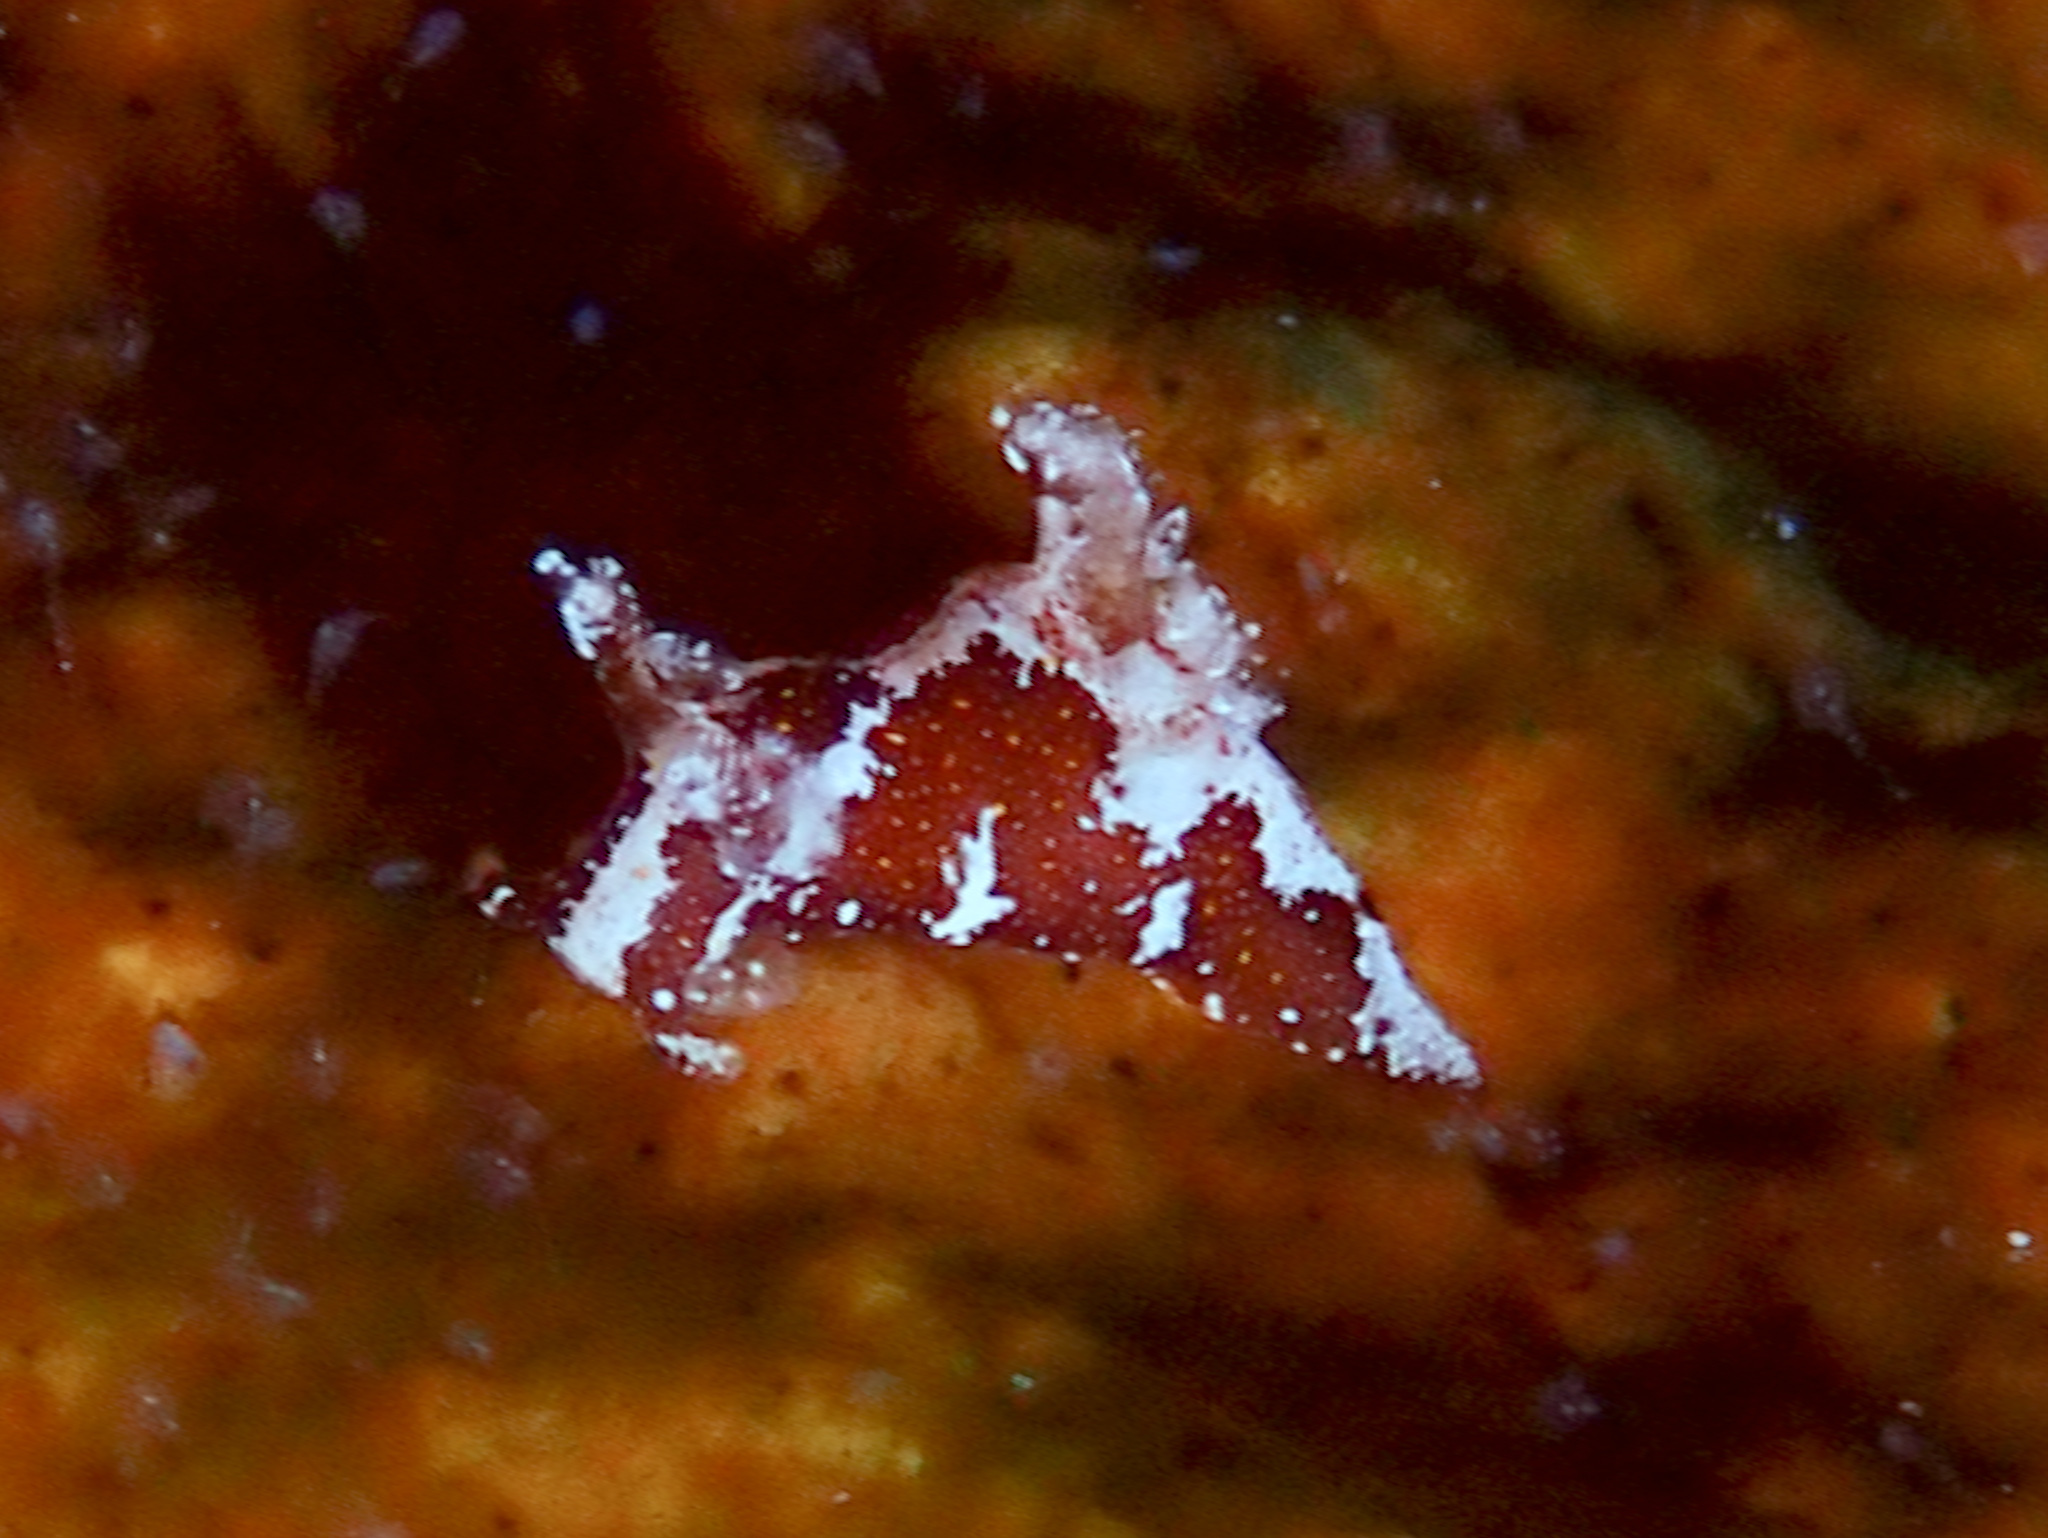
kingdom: Animalia
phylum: Mollusca
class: Gastropoda
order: Nudibranchia
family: Goniodorididae
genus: Trapania
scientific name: Trapania dalva
